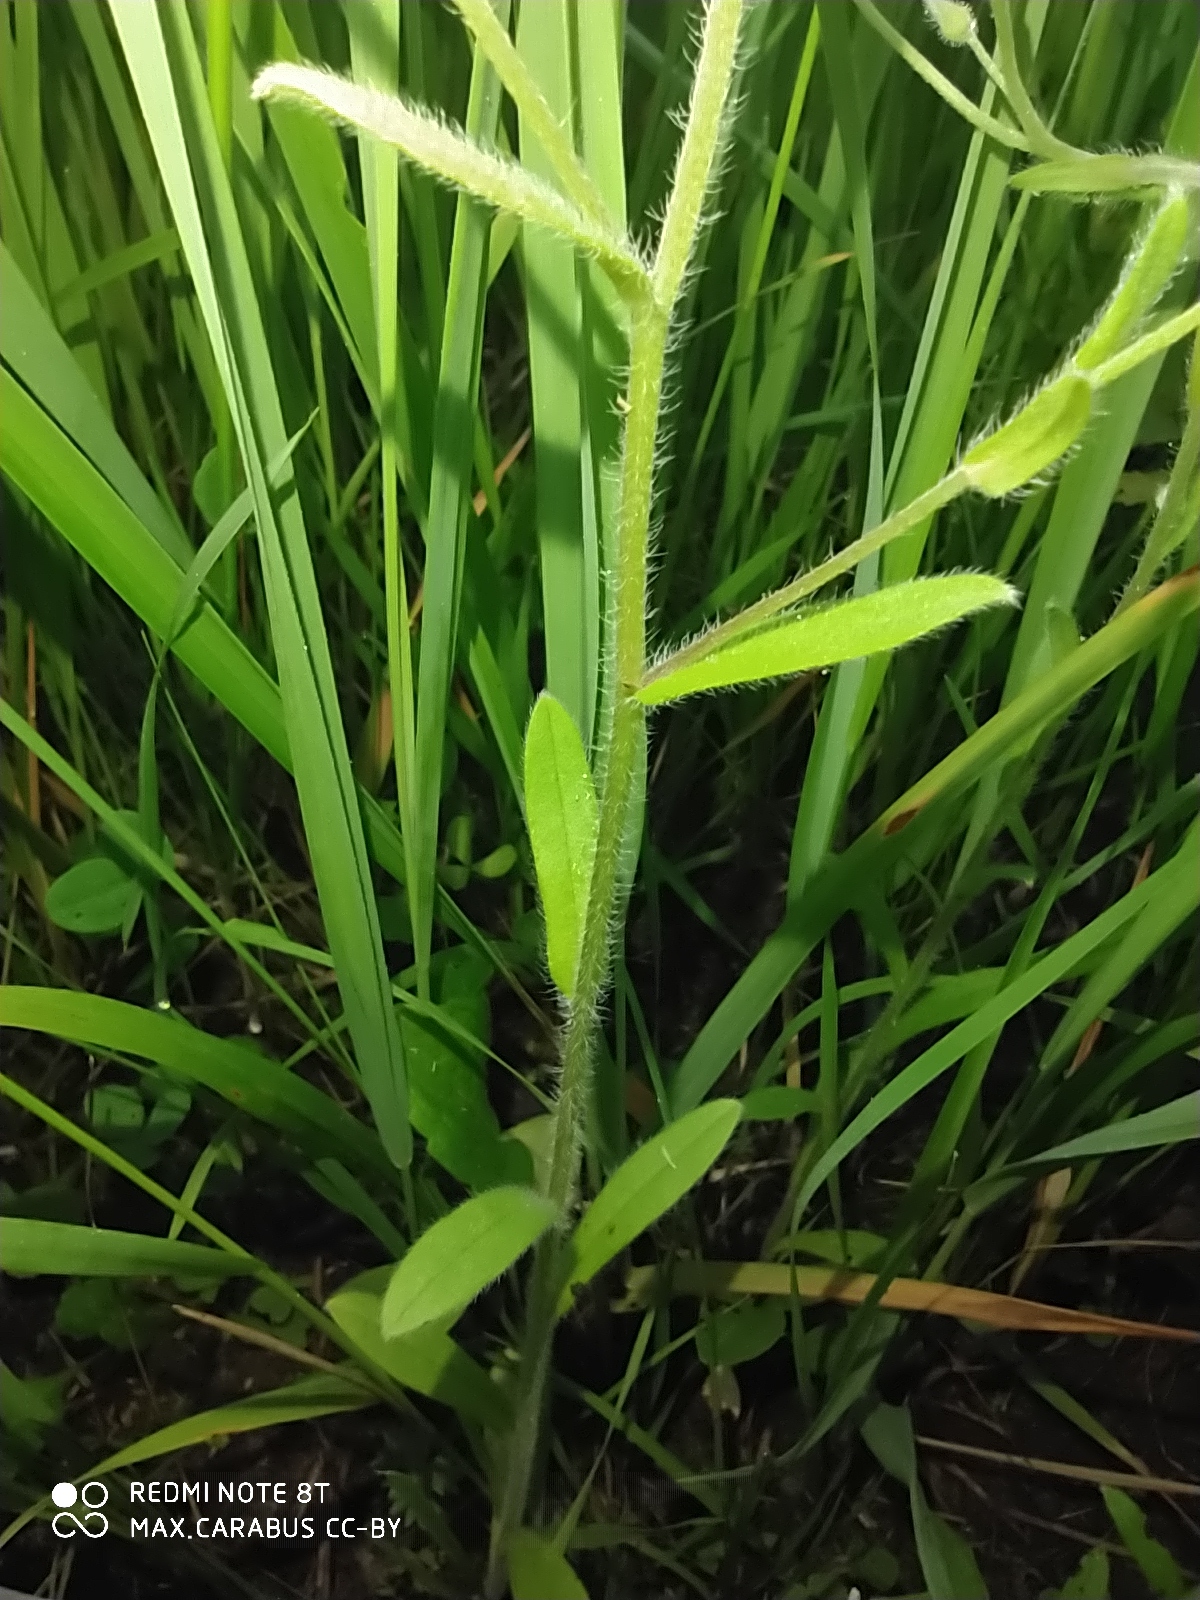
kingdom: Plantae
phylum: Tracheophyta
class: Magnoliopsida
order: Boraginales
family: Boraginaceae
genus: Myosotis
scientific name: Myosotis arvensis
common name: Field forget-me-not
